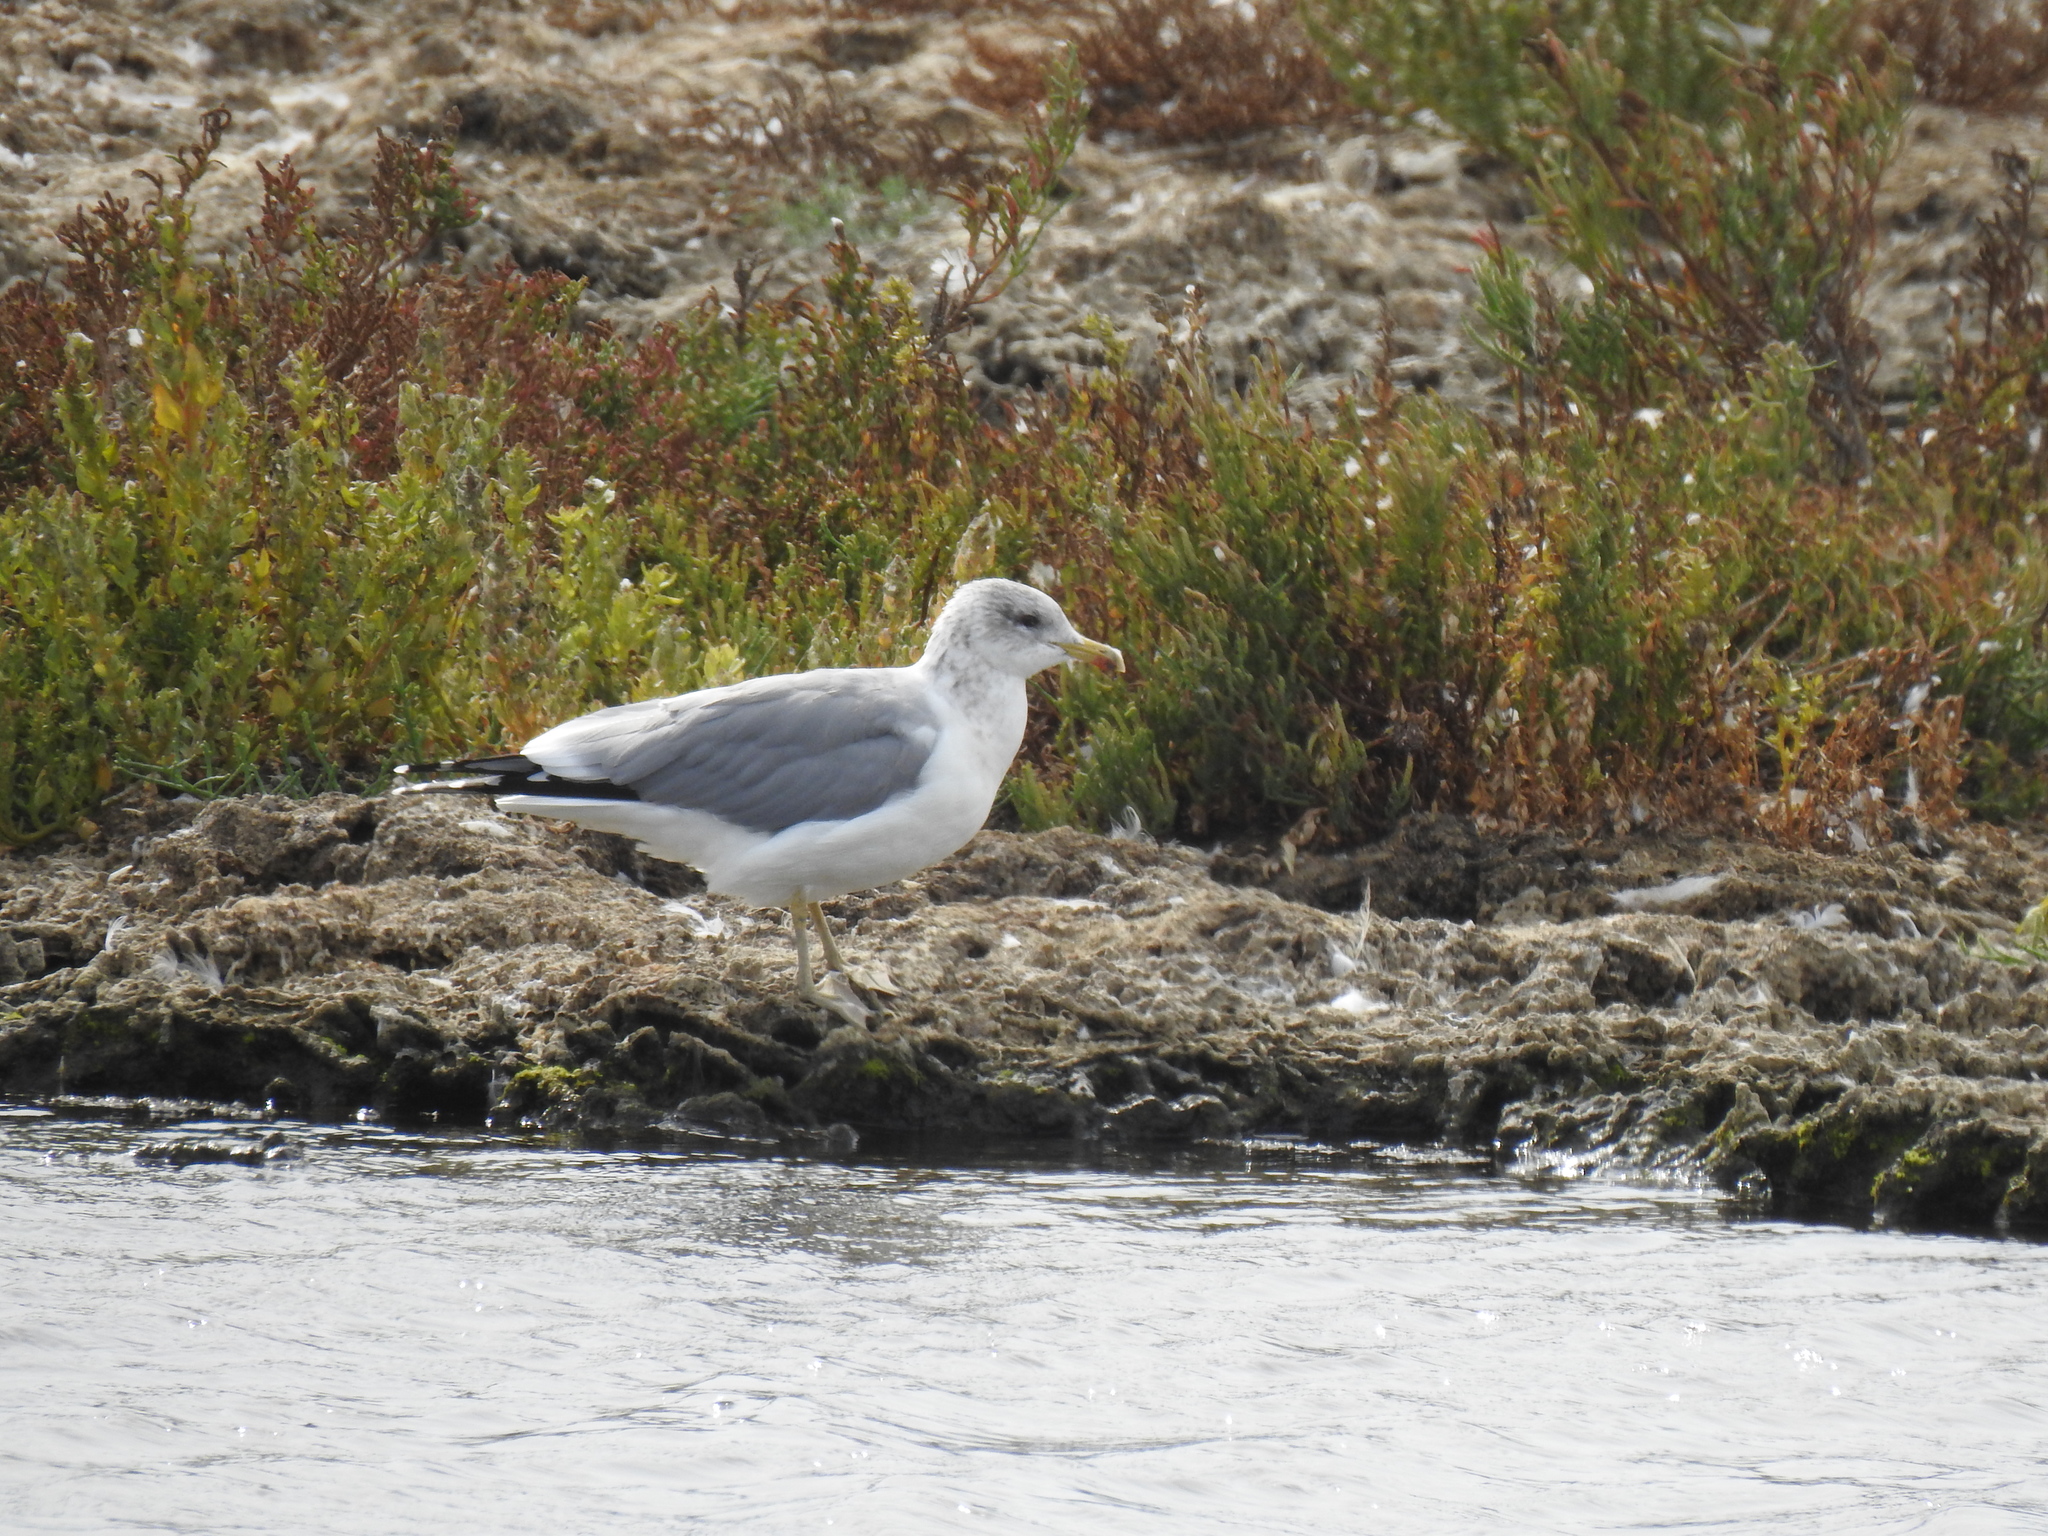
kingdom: Animalia
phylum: Chordata
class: Aves
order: Charadriiformes
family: Laridae
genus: Larus
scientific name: Larus californicus
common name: California gull
